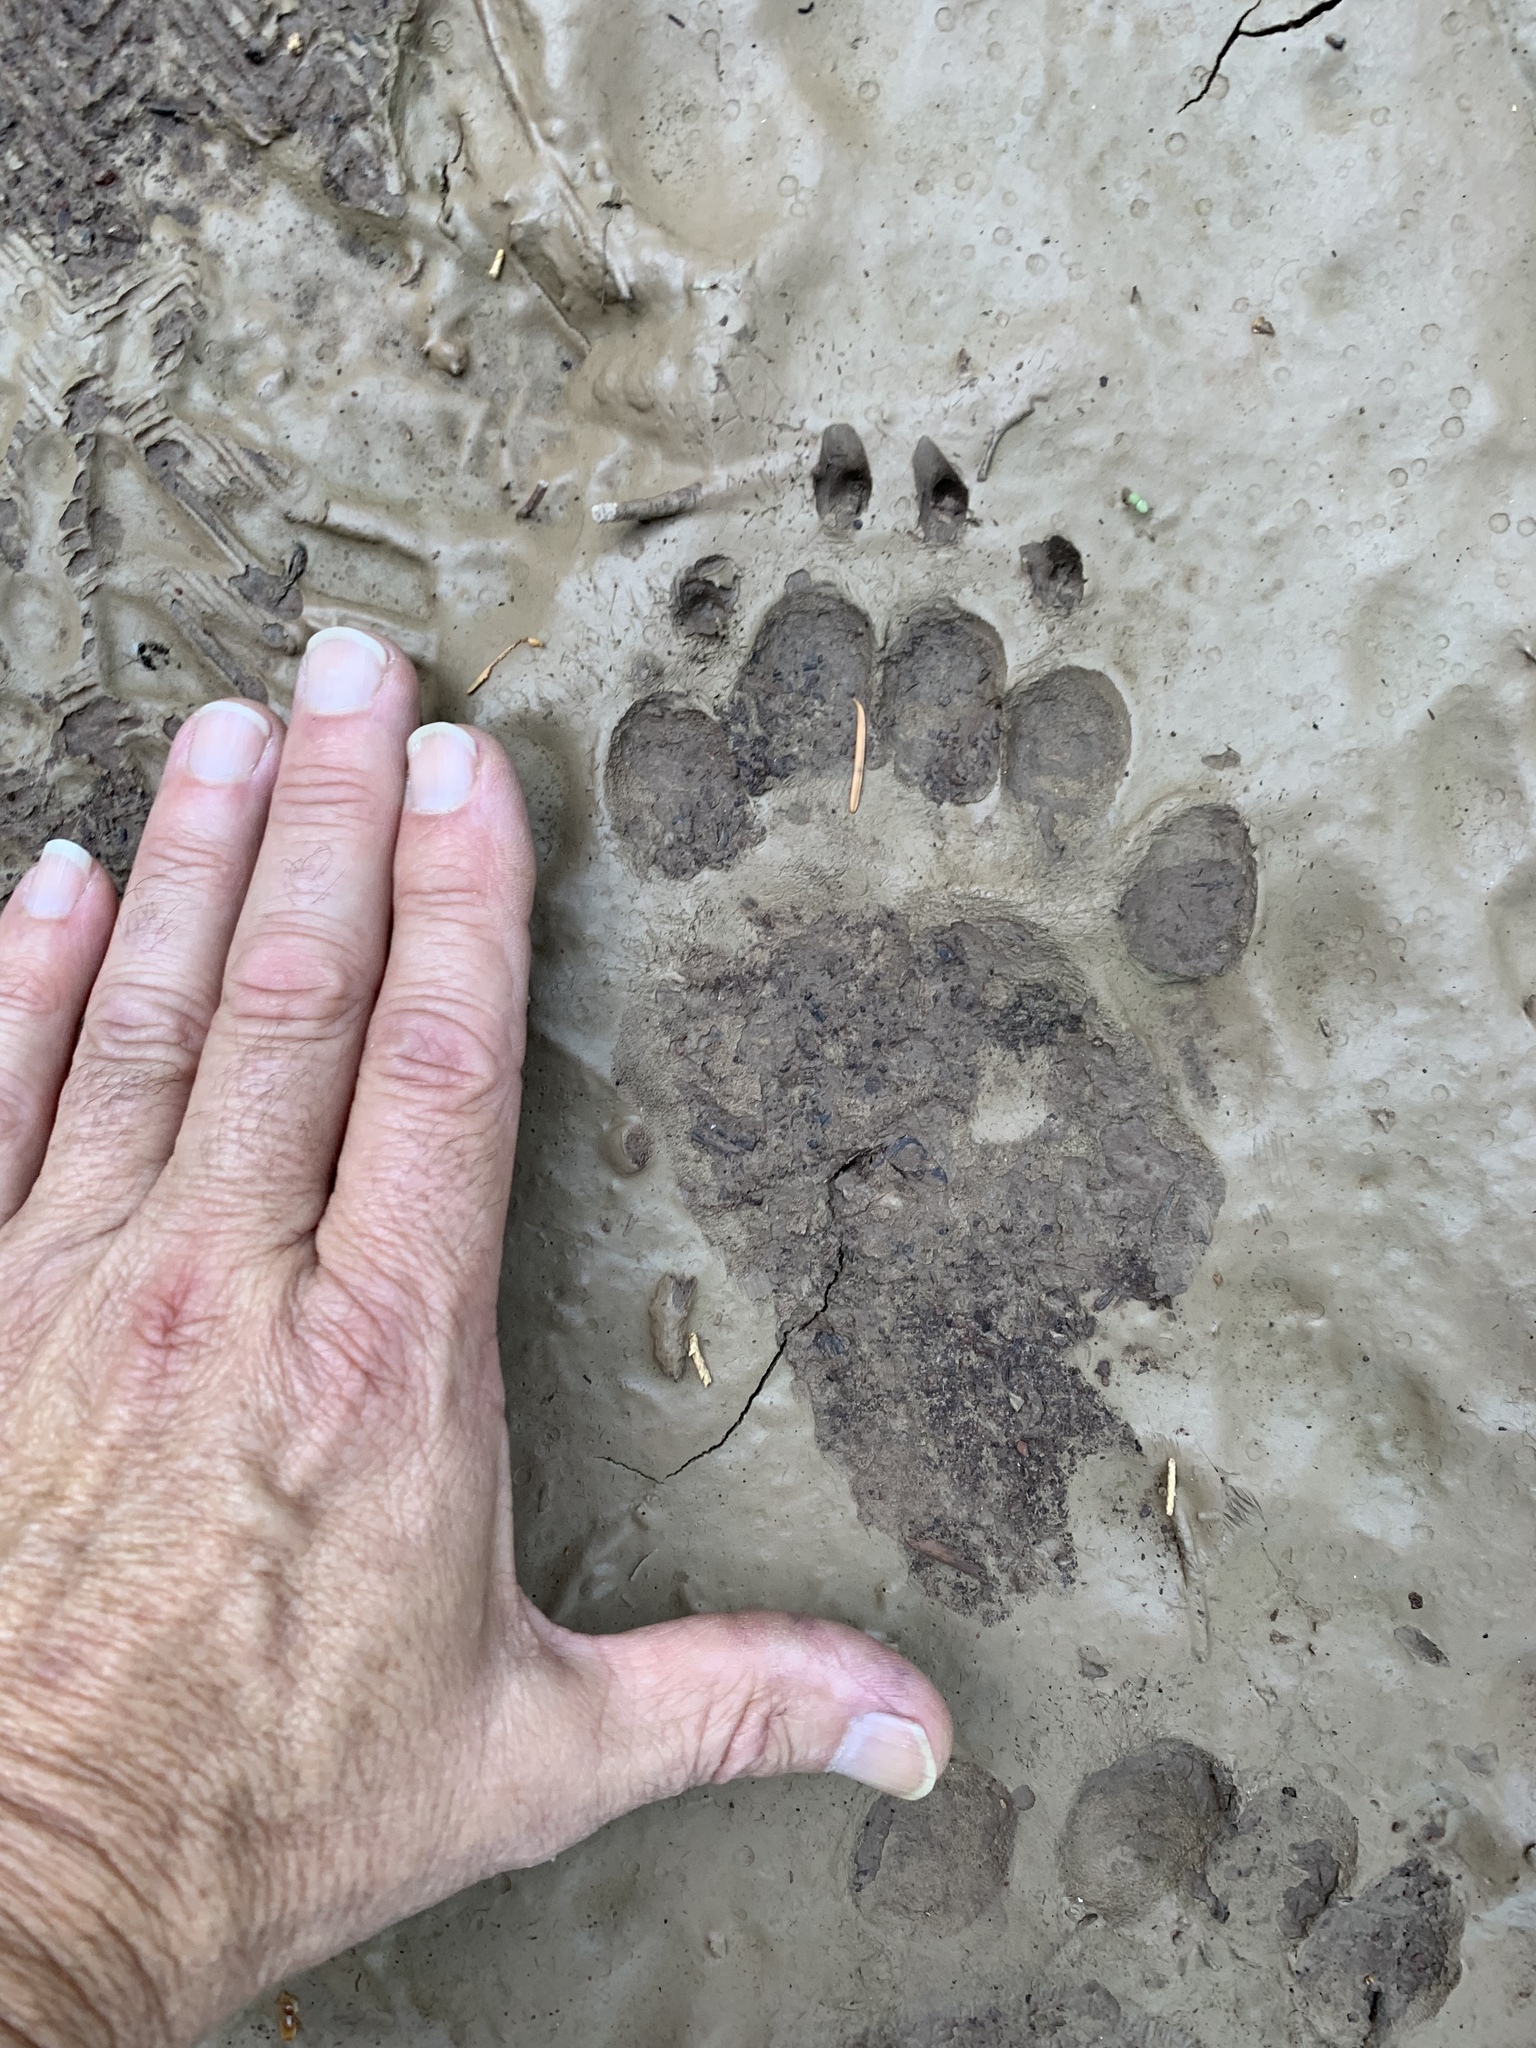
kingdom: Animalia
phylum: Chordata
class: Mammalia
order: Carnivora
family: Ursidae
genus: Ursus
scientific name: Ursus americanus
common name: American black bear
